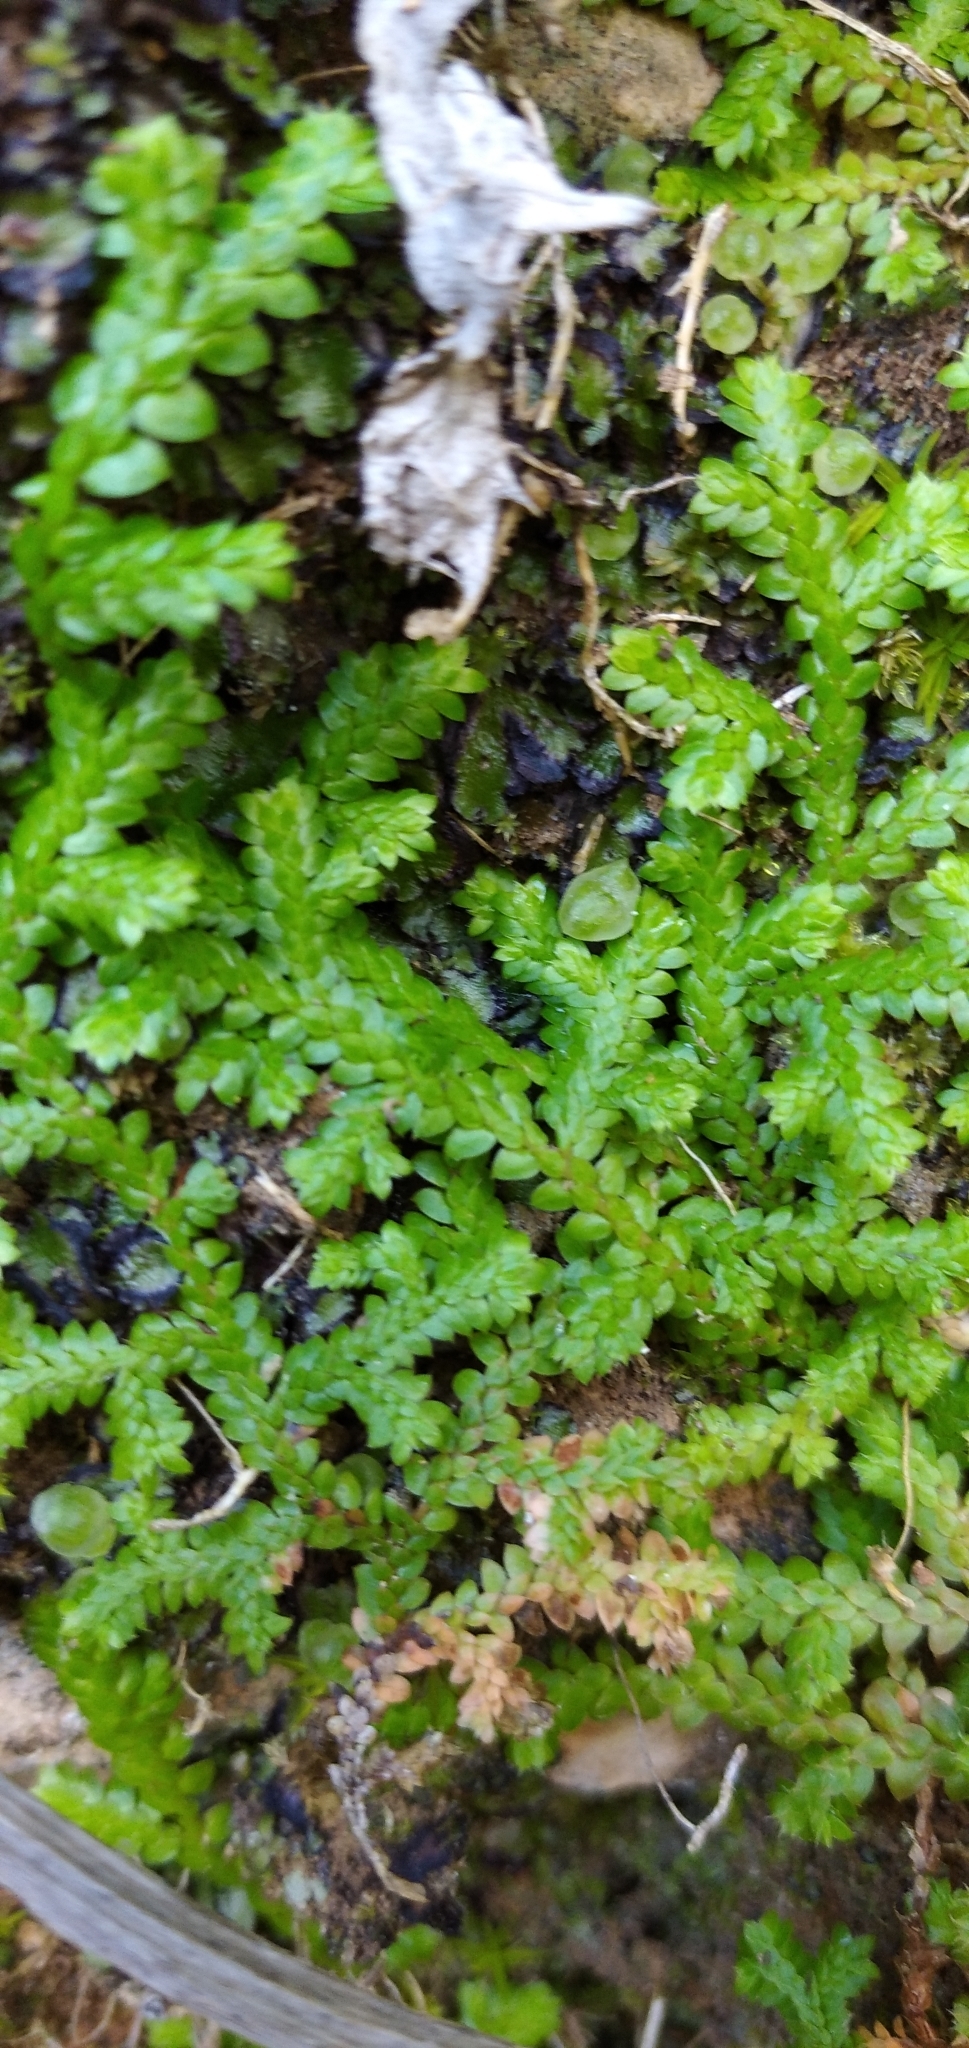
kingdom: Plantae
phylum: Tracheophyta
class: Lycopodiopsida
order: Selaginellales
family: Selaginellaceae
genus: Selaginella
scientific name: Selaginella denticulata
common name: Toothed-leaved clubmoss
